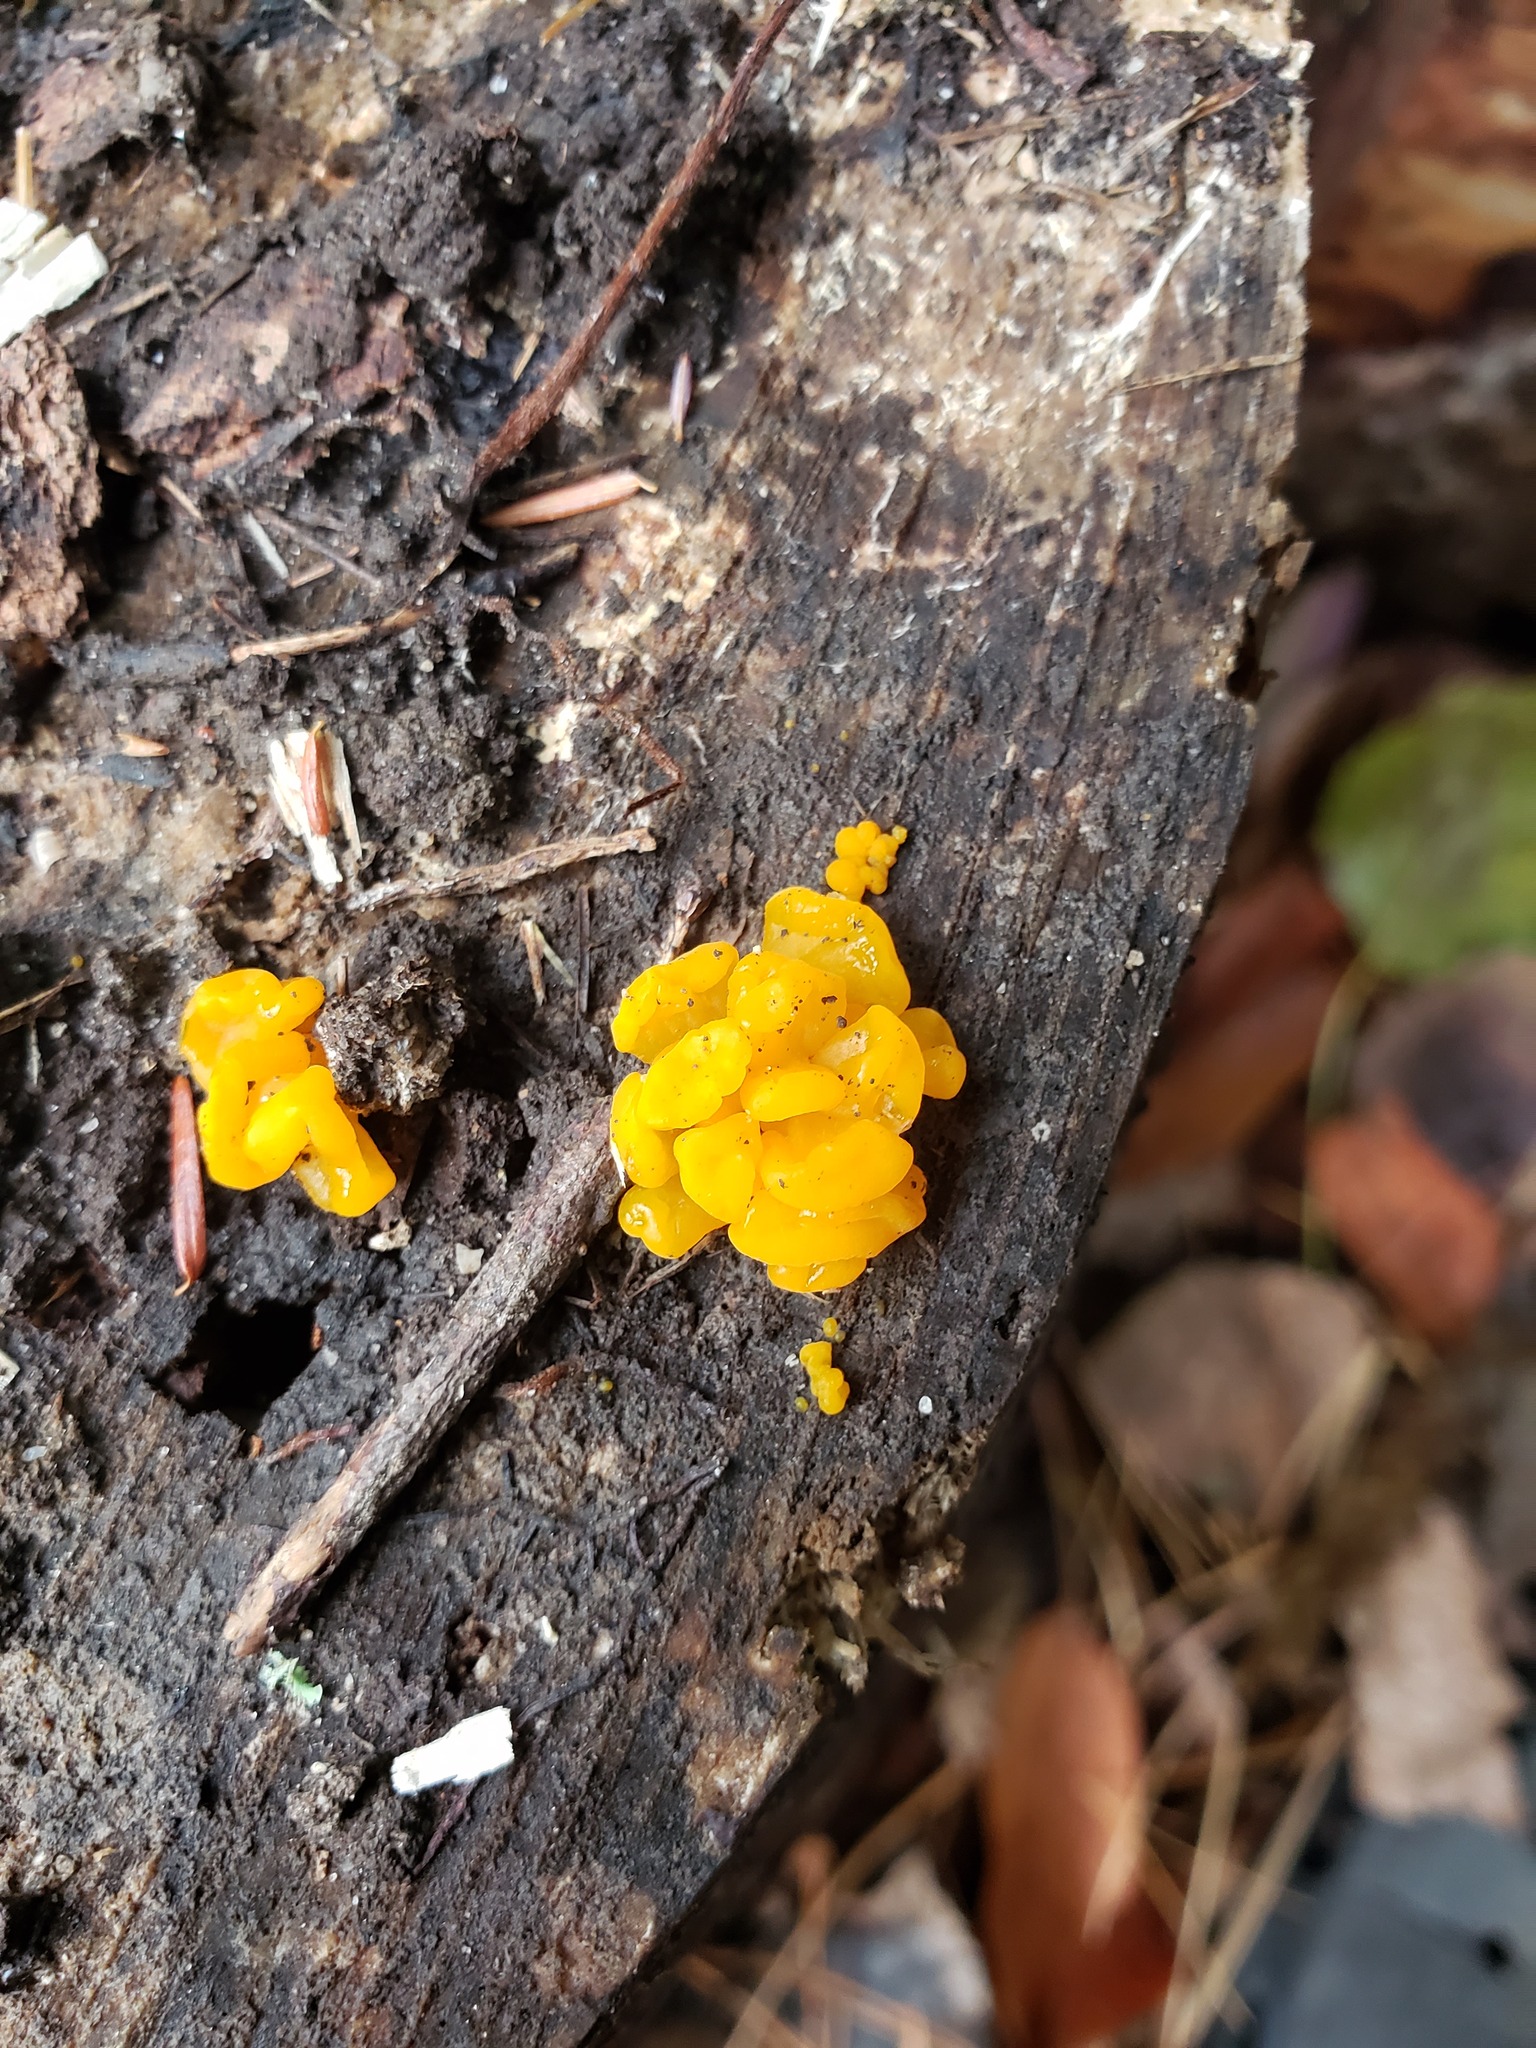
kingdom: Fungi
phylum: Basidiomycota
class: Dacrymycetes
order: Dacrymycetales
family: Dacrymycetaceae
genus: Dacrymyces
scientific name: Dacrymyces chrysospermus
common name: Orange jelly spot
